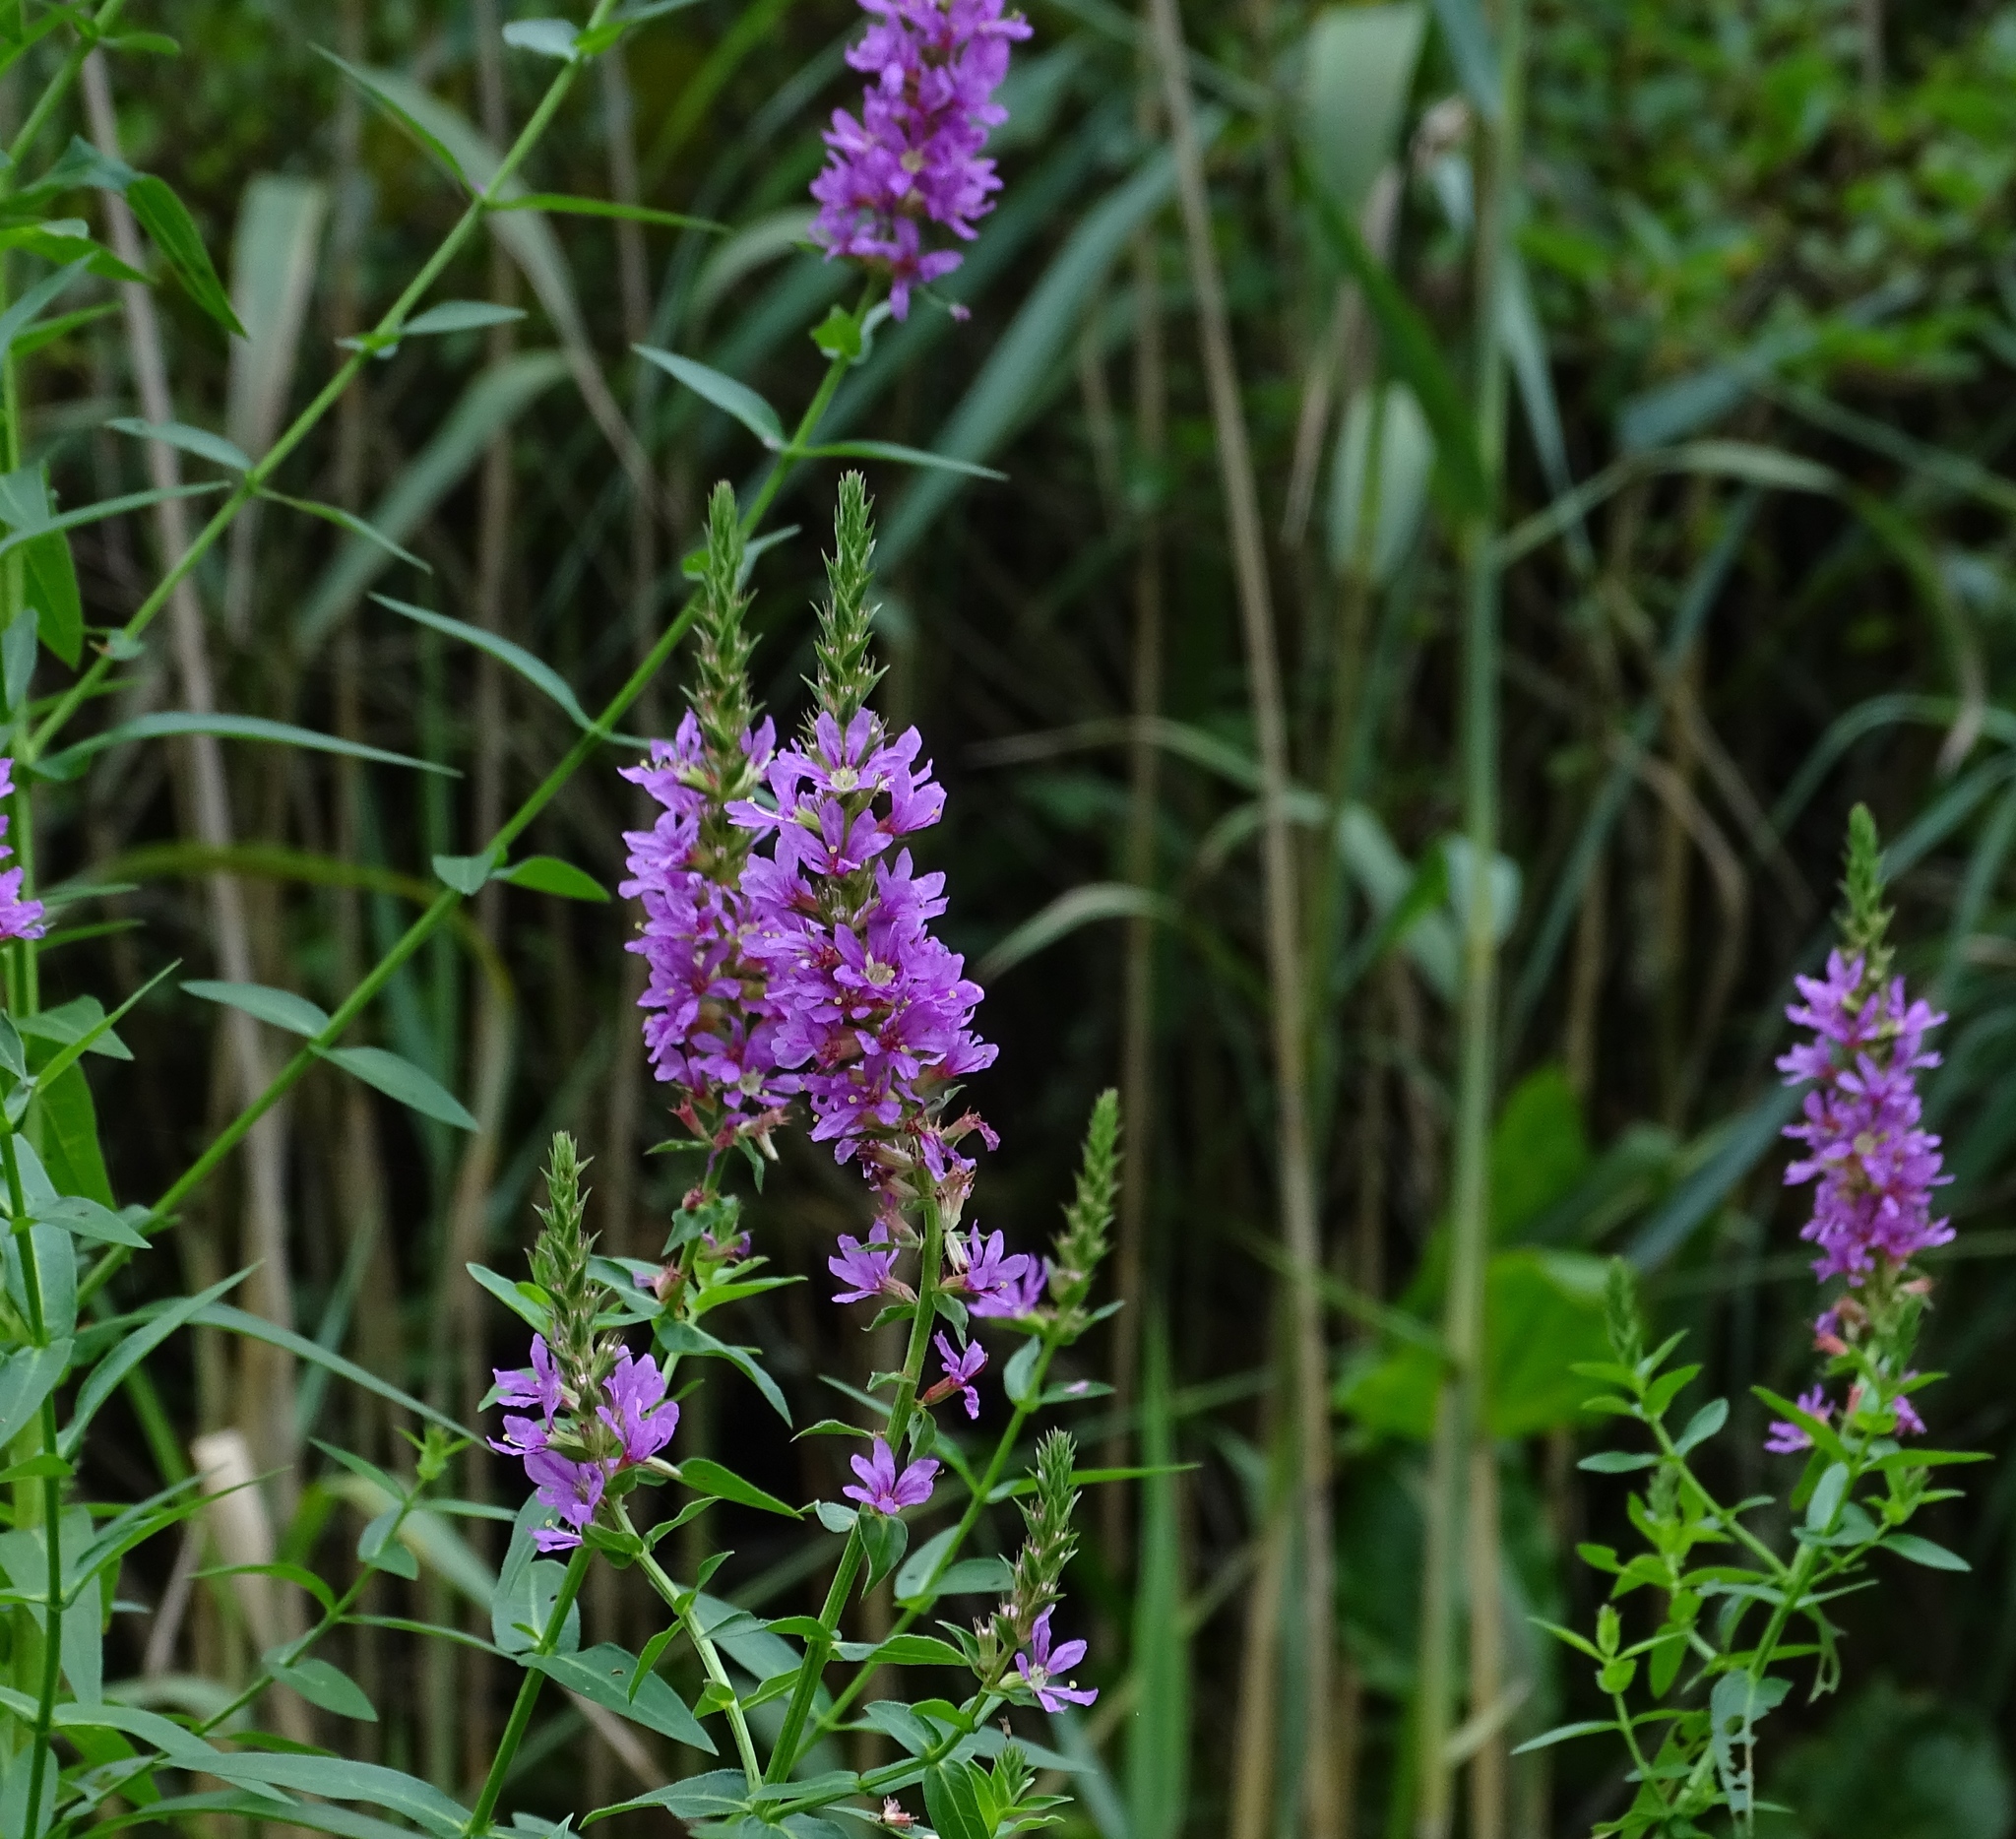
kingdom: Plantae
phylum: Tracheophyta
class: Magnoliopsida
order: Myrtales
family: Lythraceae
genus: Lythrum
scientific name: Lythrum salicaria
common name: Purple loosestrife
